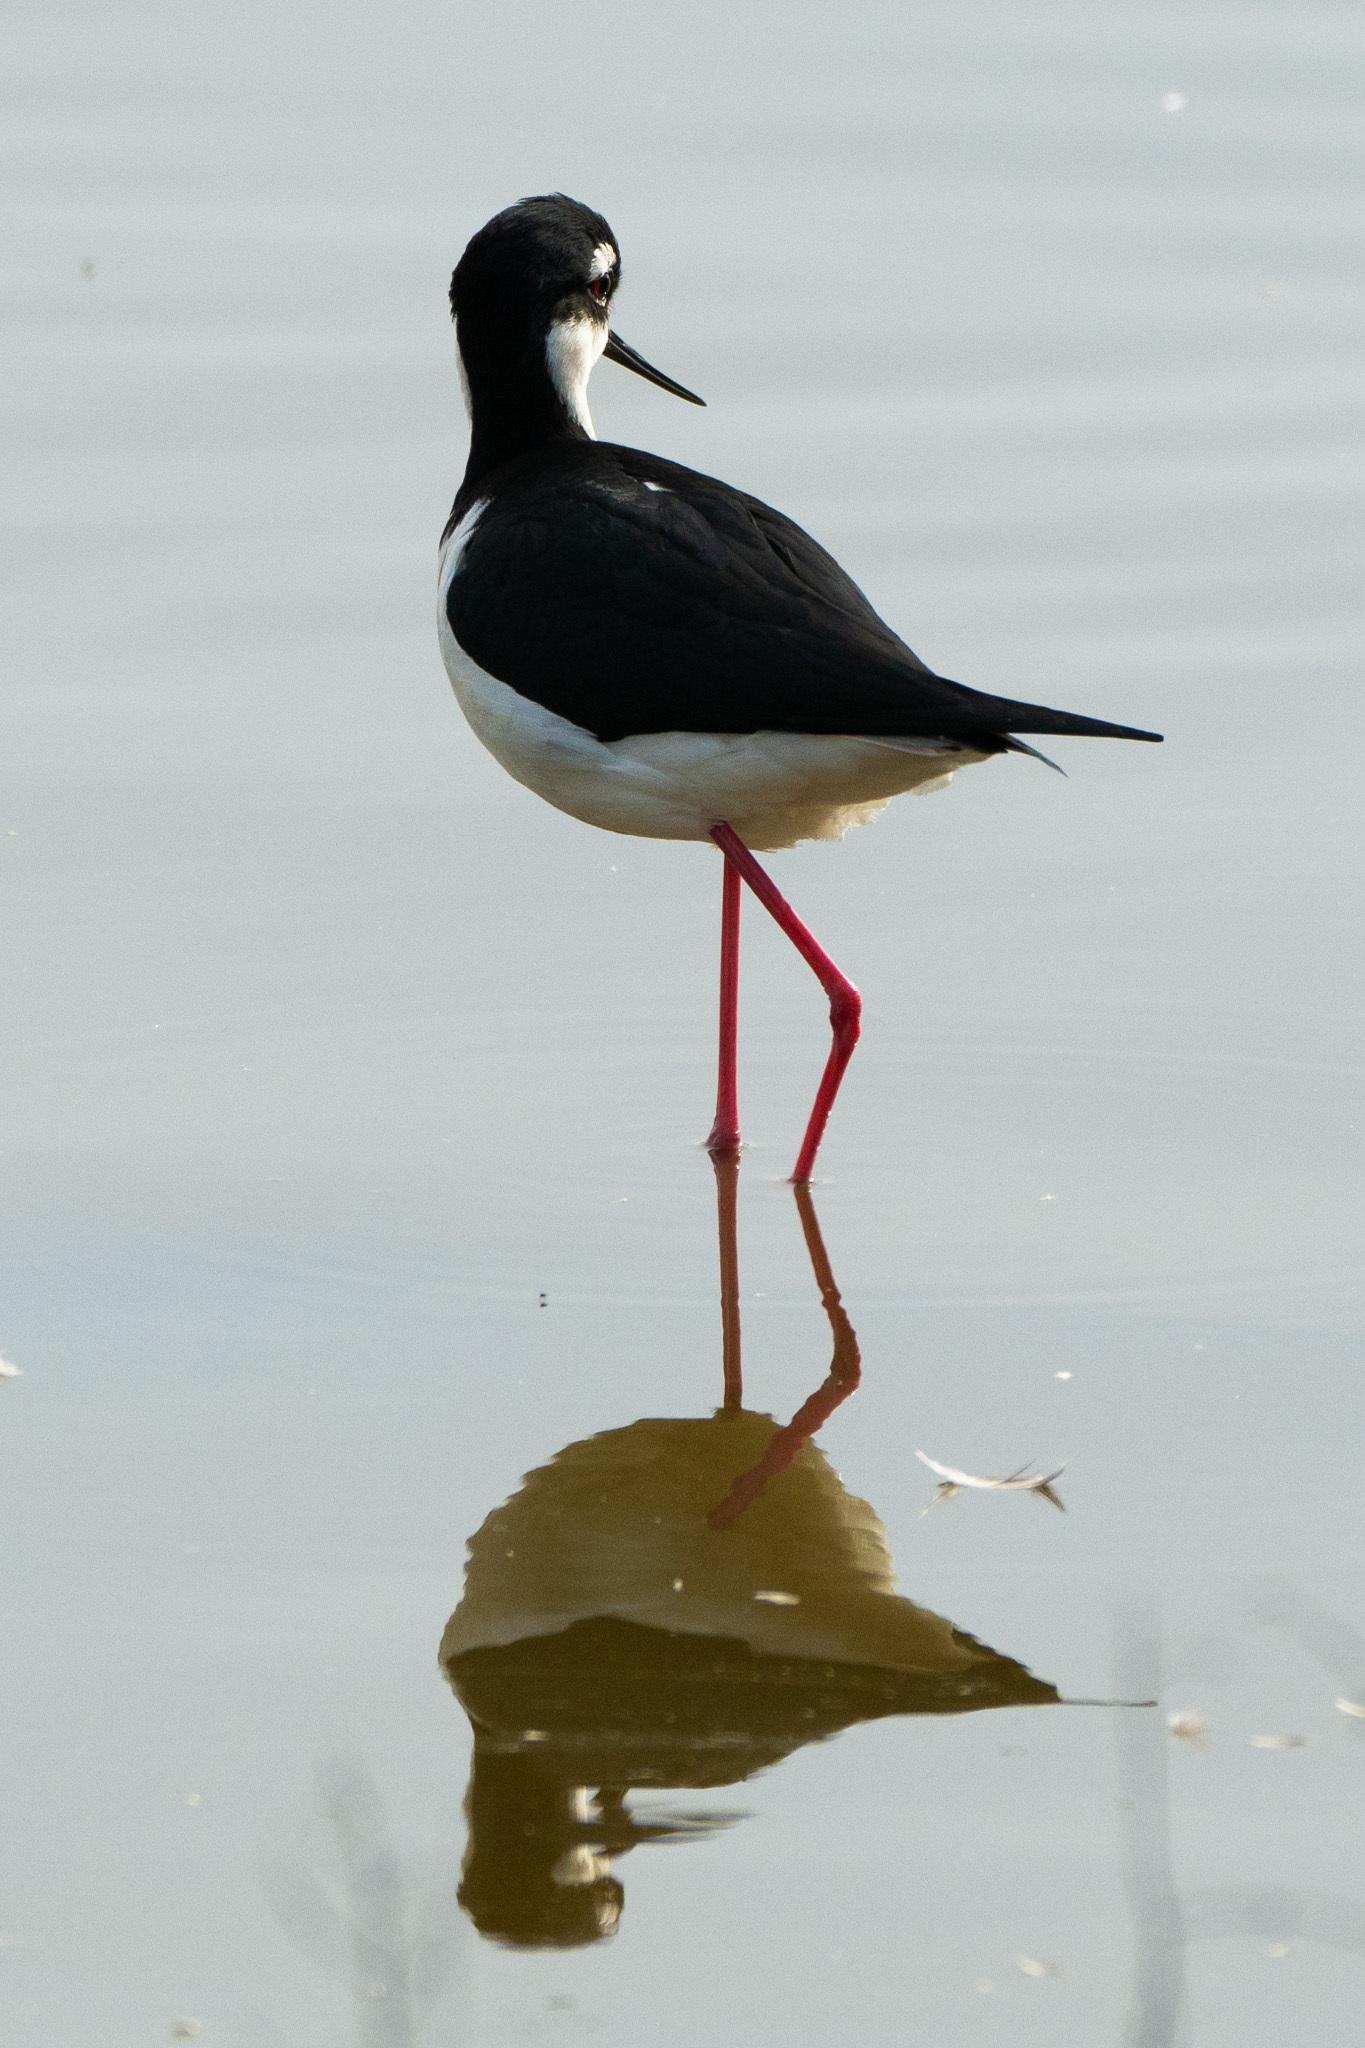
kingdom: Animalia
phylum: Chordata
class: Aves
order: Charadriiformes
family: Recurvirostridae
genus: Himantopus
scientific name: Himantopus mexicanus
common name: Black-necked stilt
